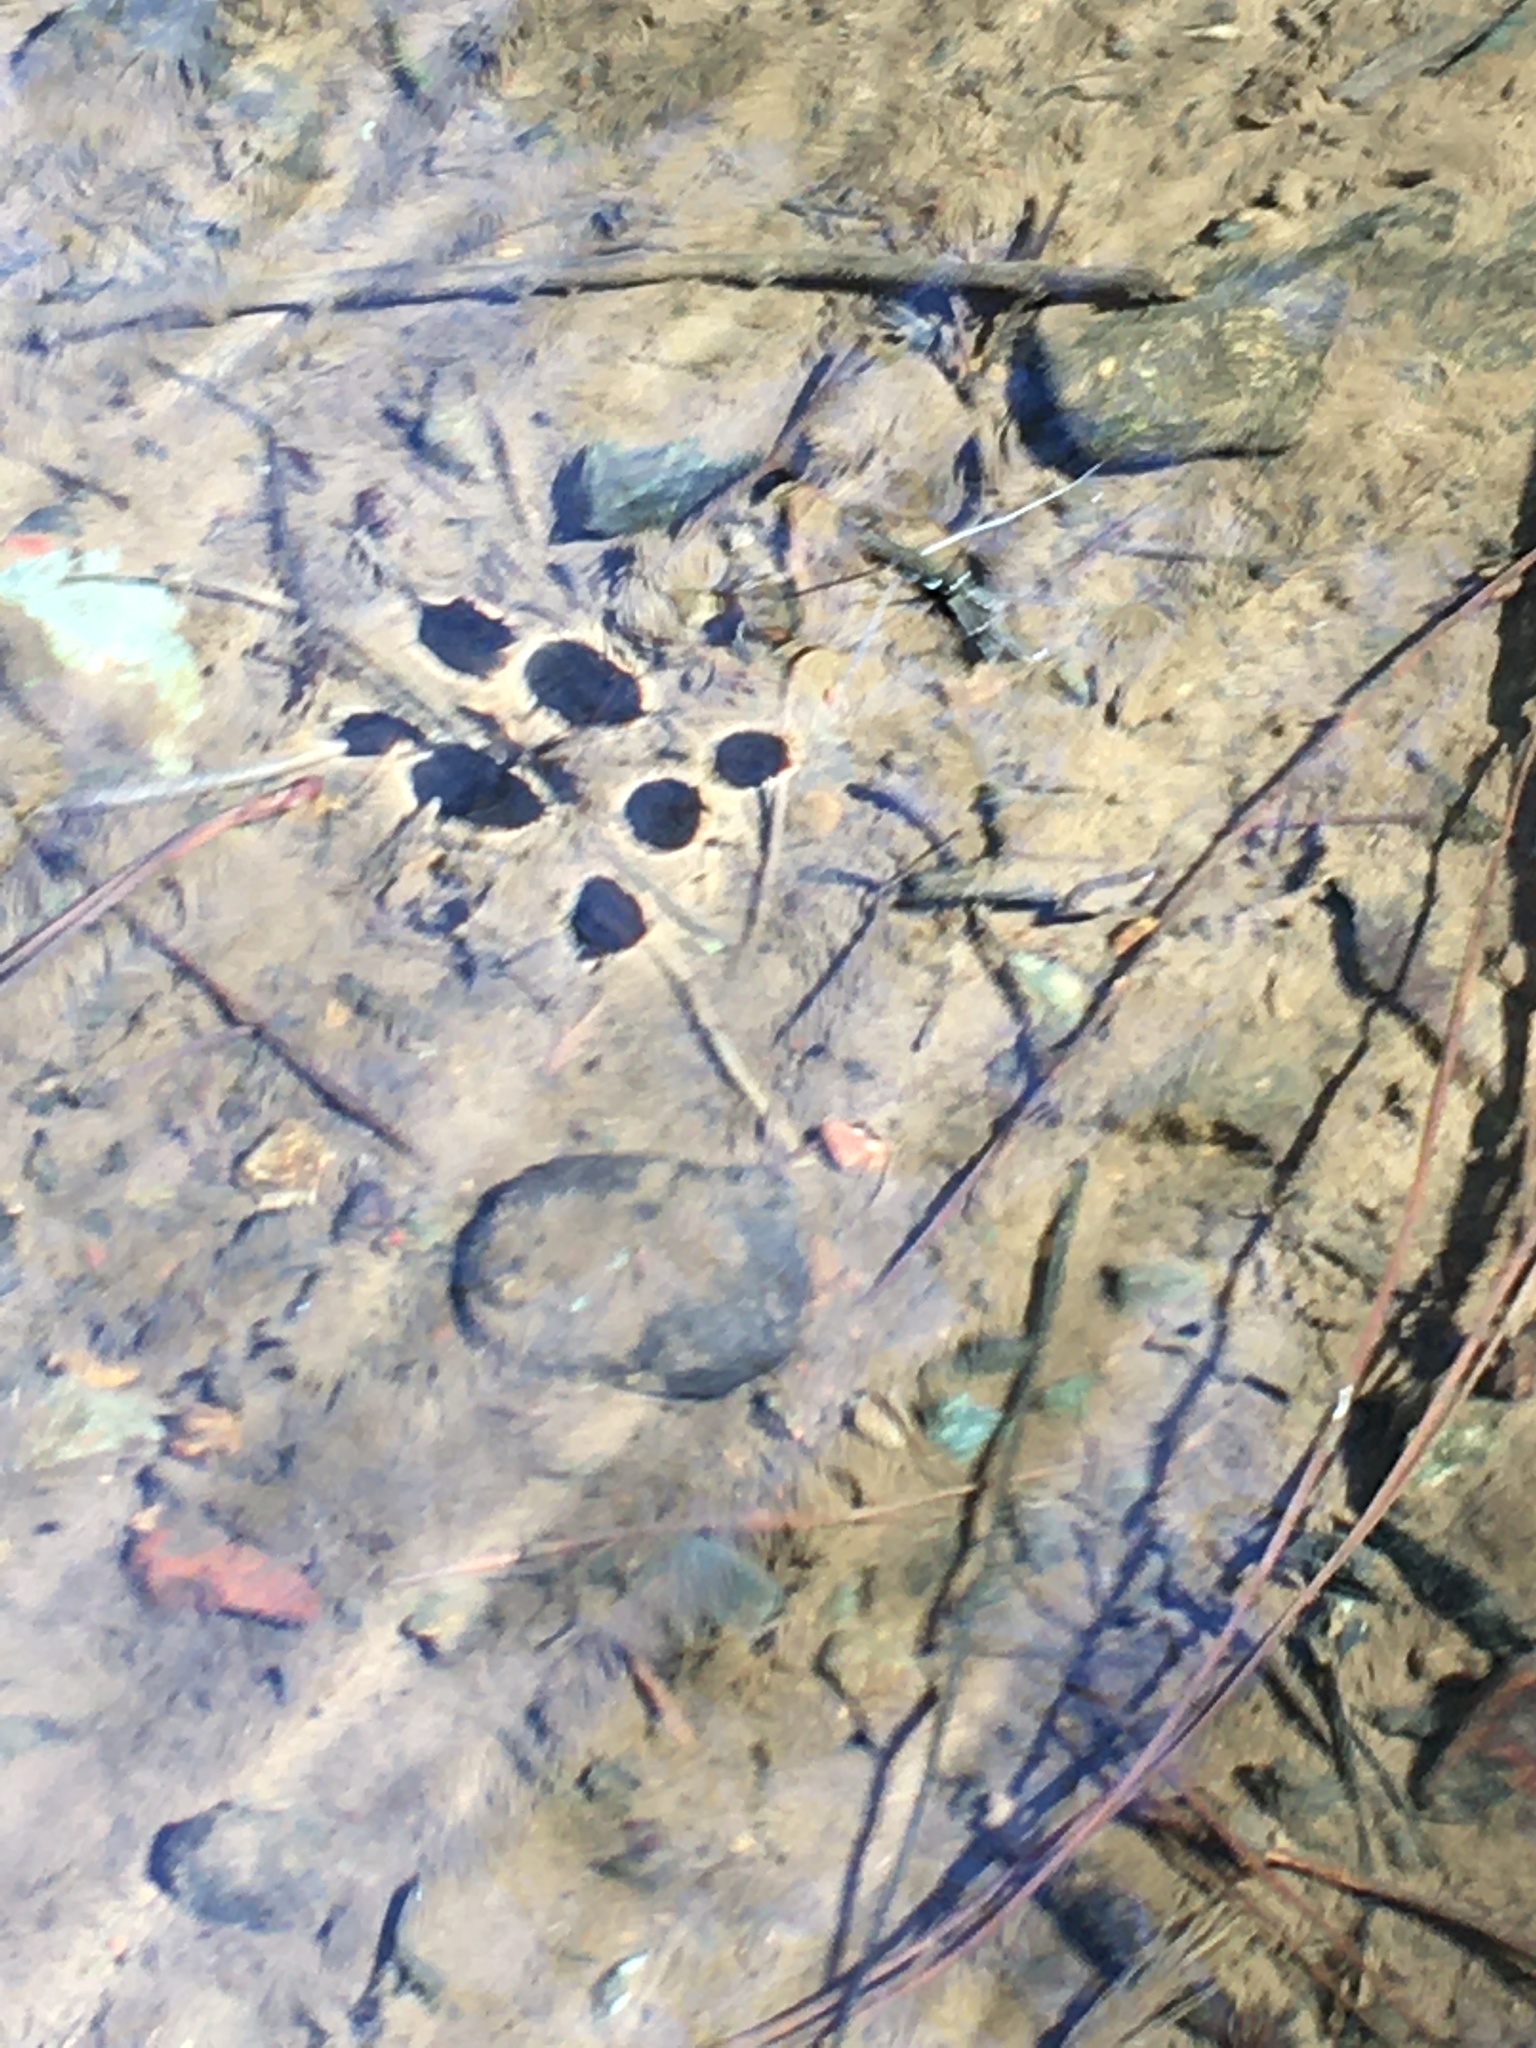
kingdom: Animalia
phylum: Arthropoda
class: Insecta
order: Hemiptera
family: Gerridae
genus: Aquarius
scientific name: Aquarius remigis
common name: Common water strider
